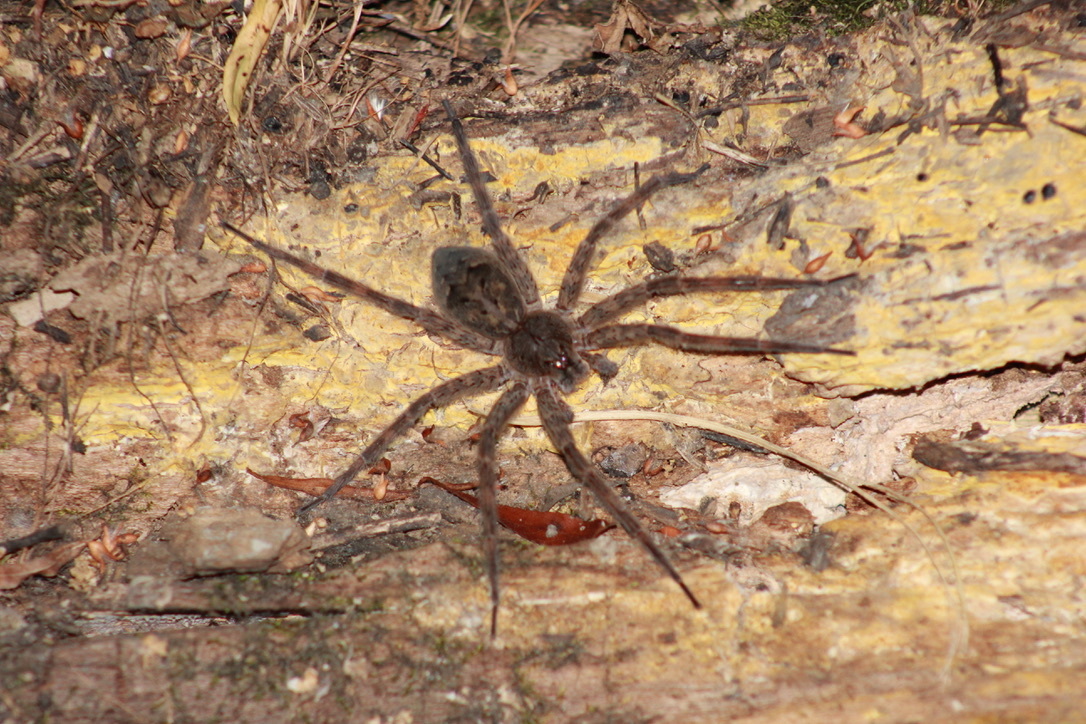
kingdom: Animalia
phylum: Arthropoda
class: Arachnida
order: Araneae
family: Pisauridae
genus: Dolomedes
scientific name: Dolomedes tenebrosus
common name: Dark fishing spider
